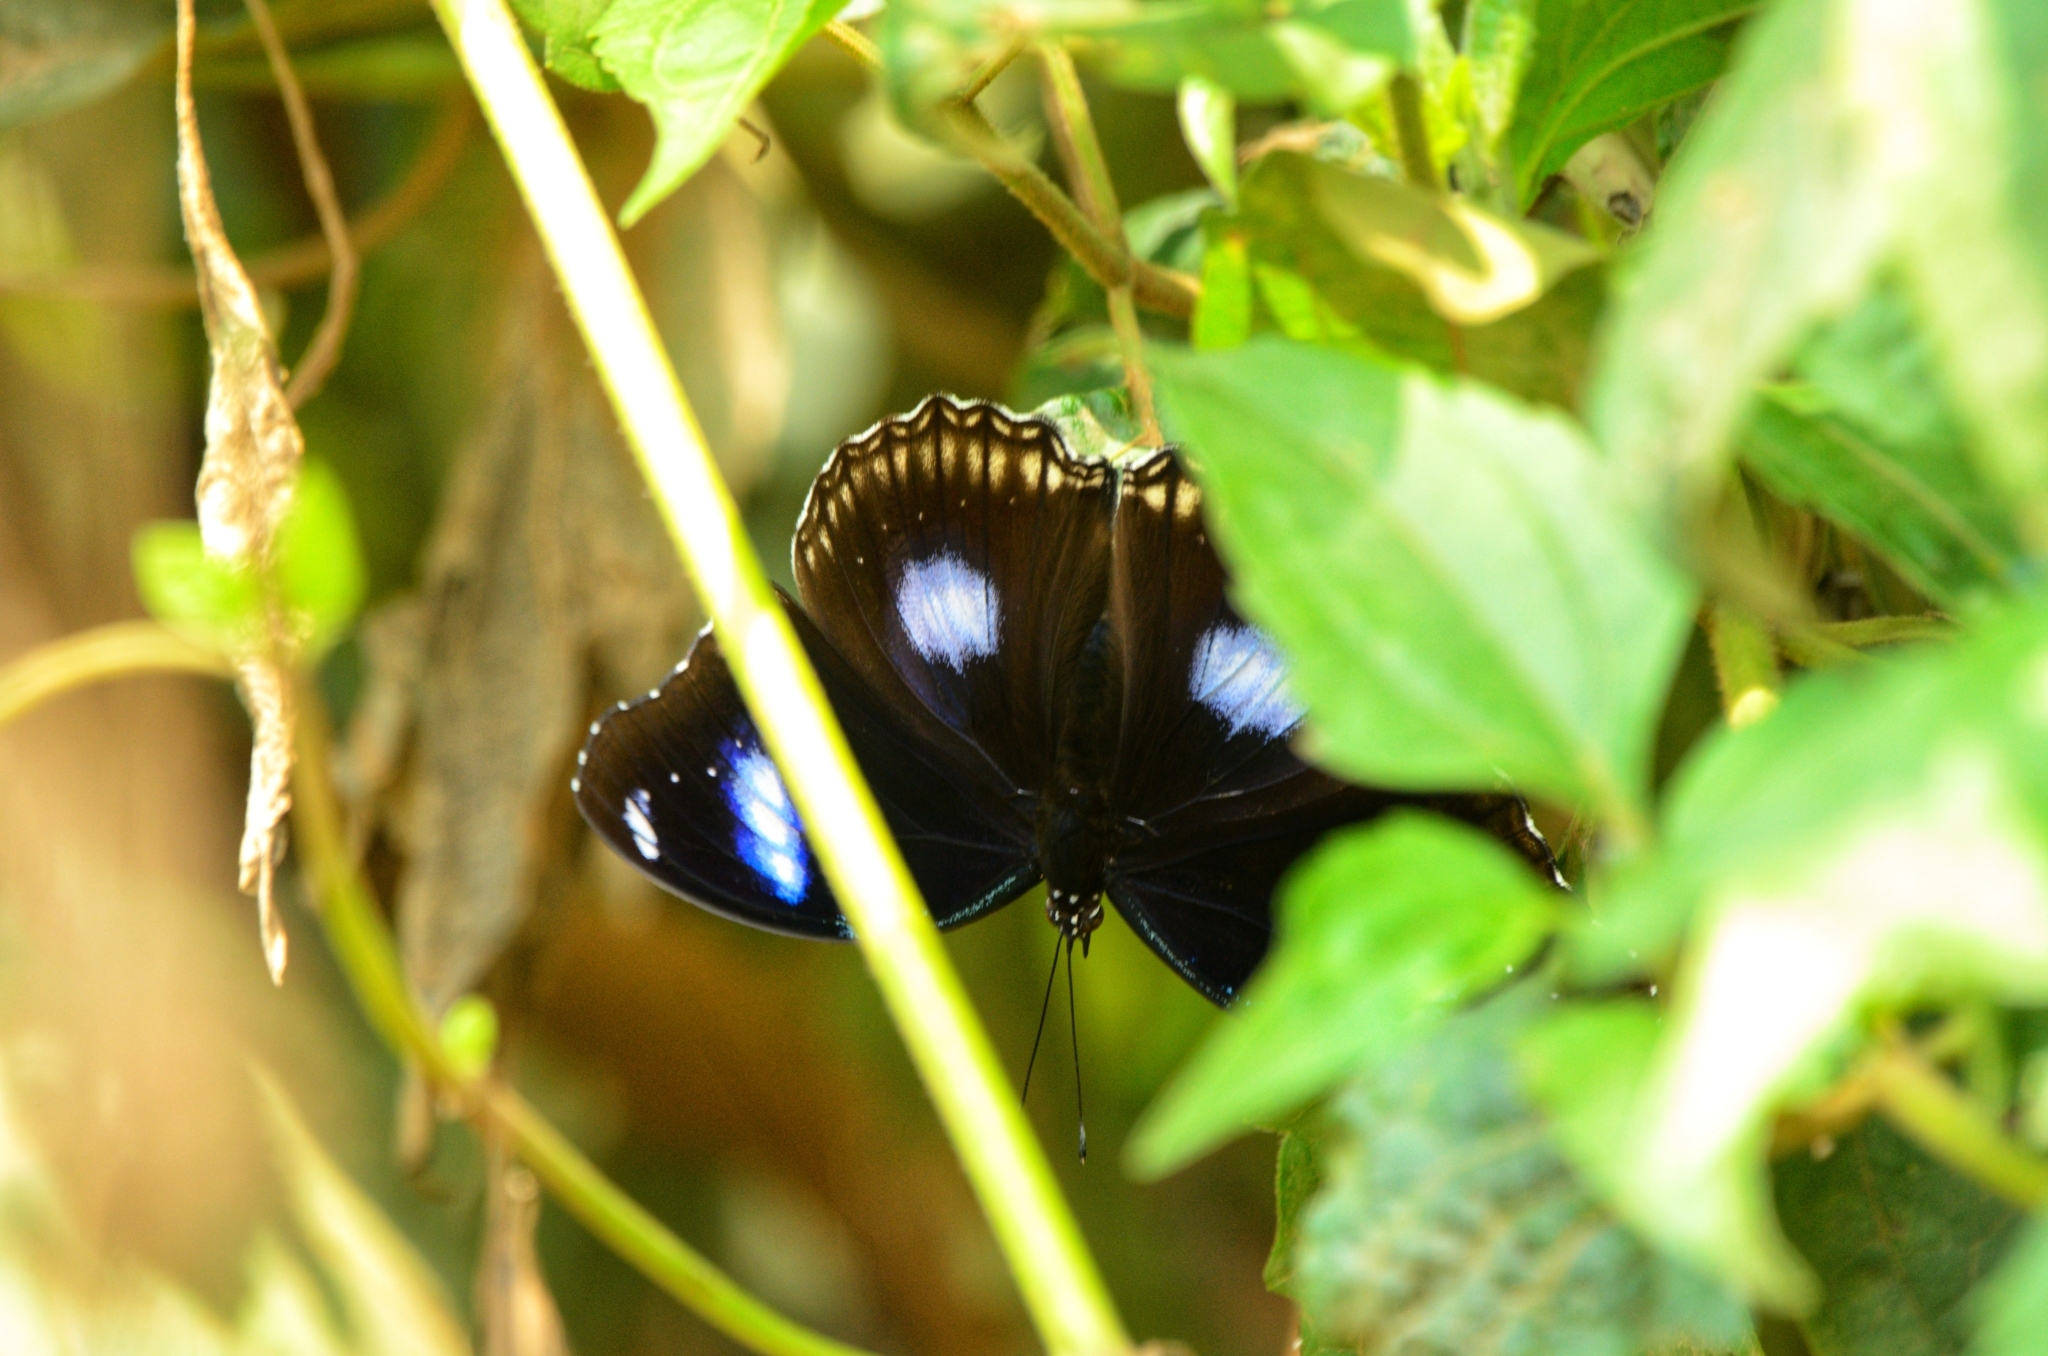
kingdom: Animalia
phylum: Arthropoda
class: Insecta
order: Lepidoptera
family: Nymphalidae
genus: Hypolimnas
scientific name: Hypolimnas bolina
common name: Great eggfly
